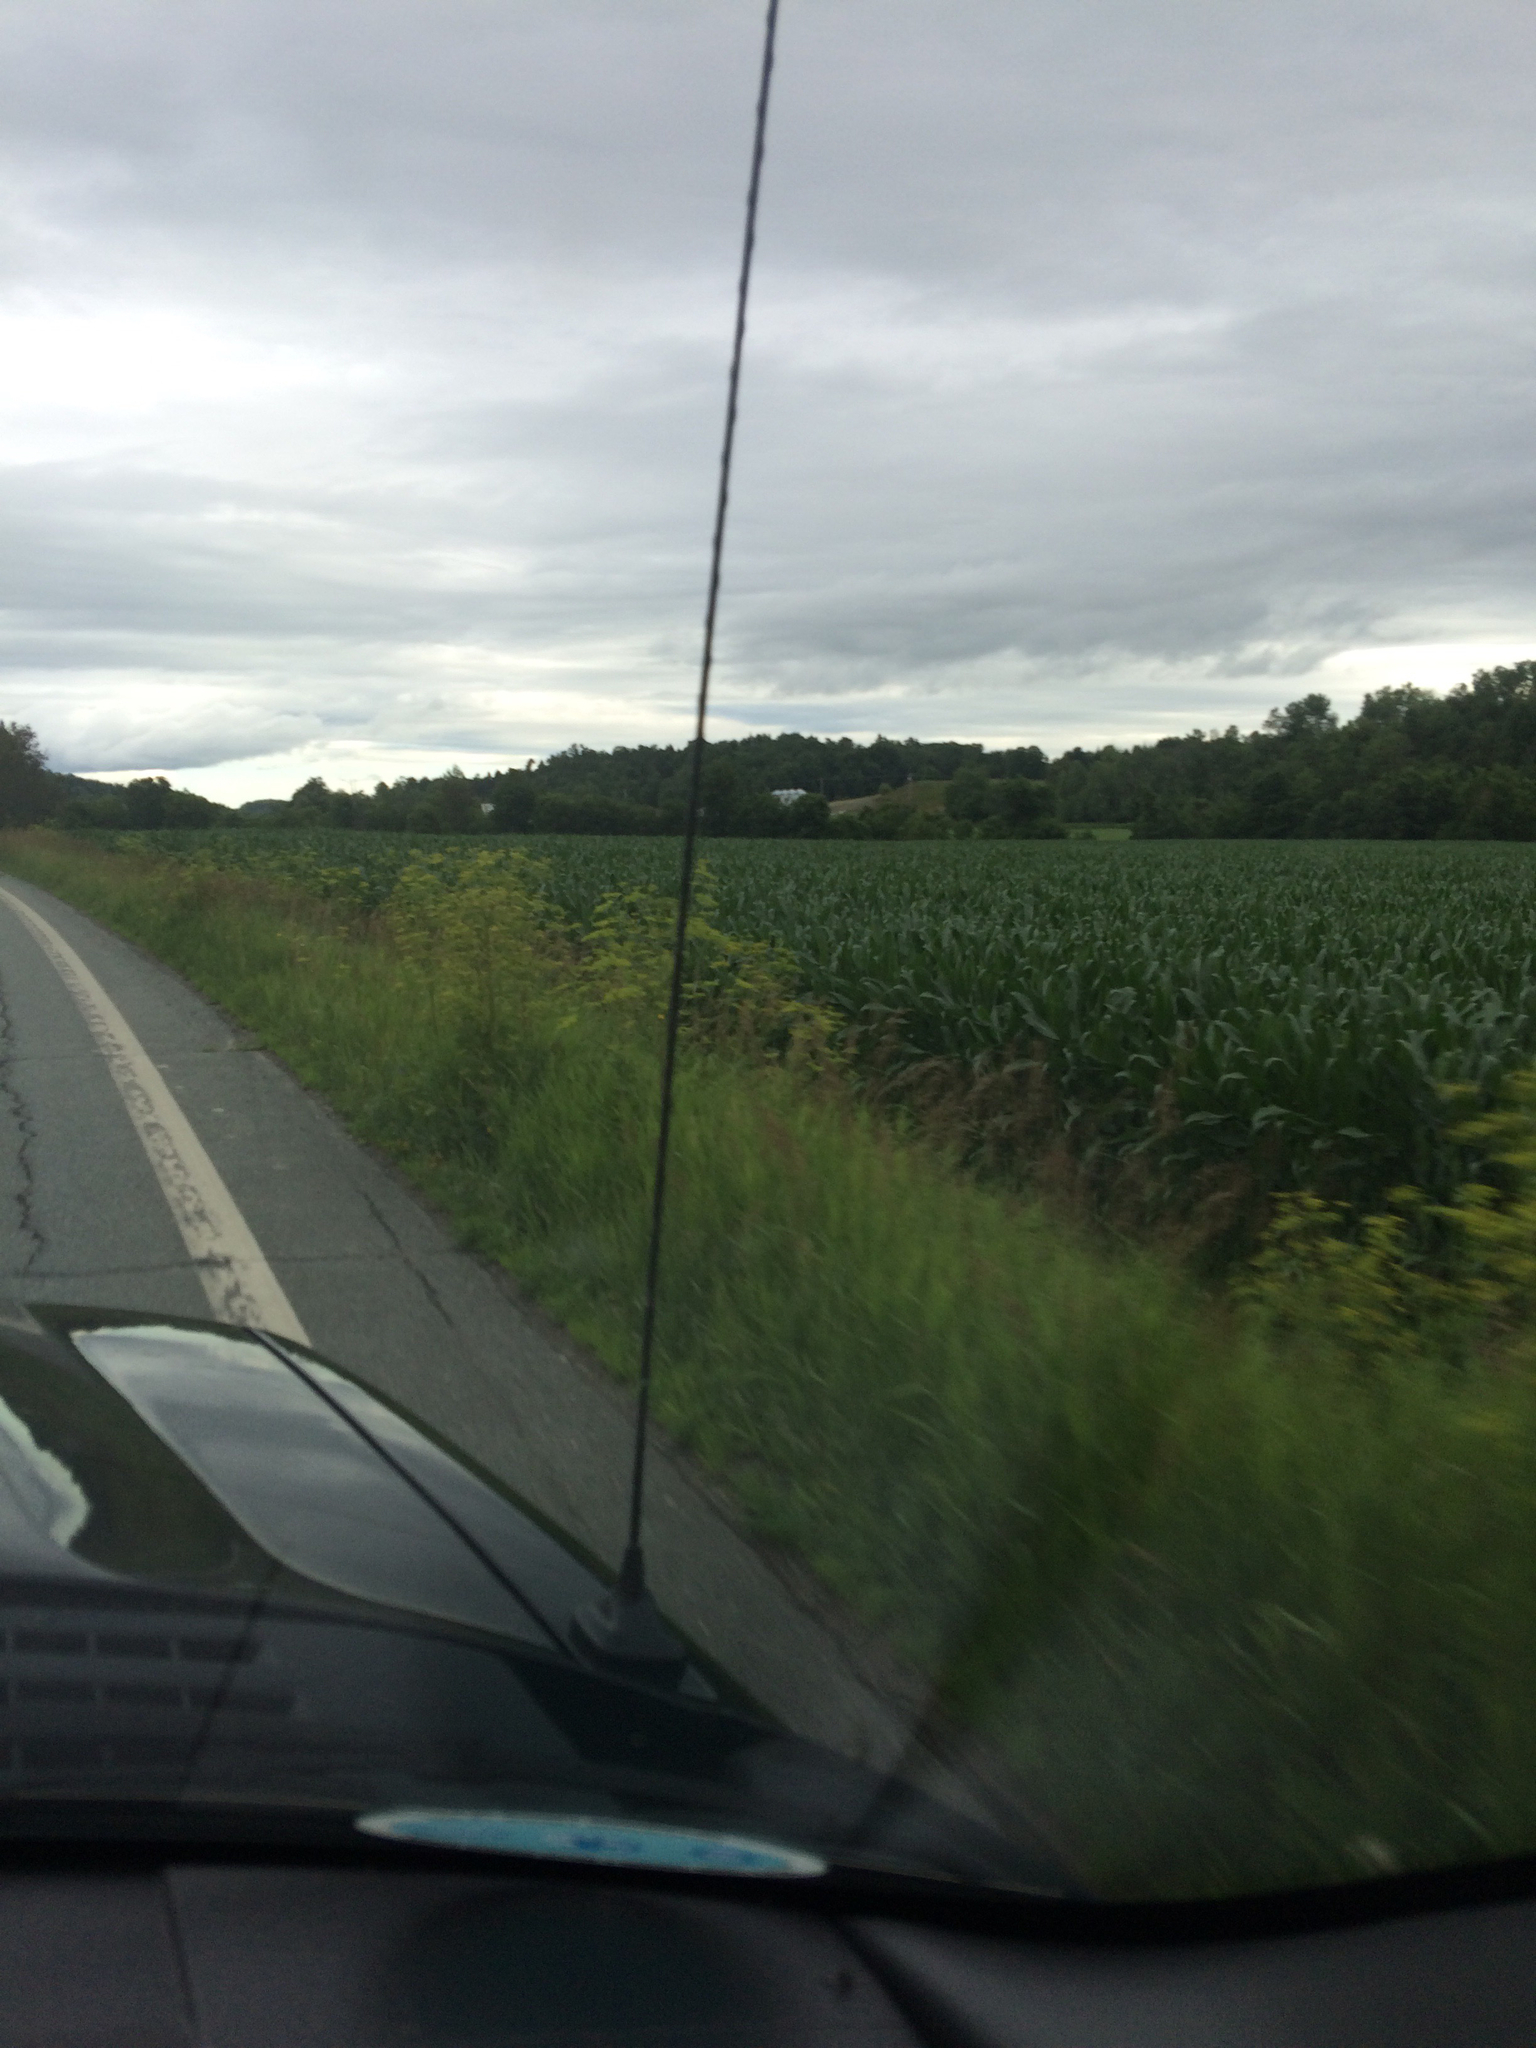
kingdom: Plantae
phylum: Tracheophyta
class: Magnoliopsida
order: Apiales
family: Apiaceae
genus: Pastinaca
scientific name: Pastinaca sativa
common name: Wild parsnip
